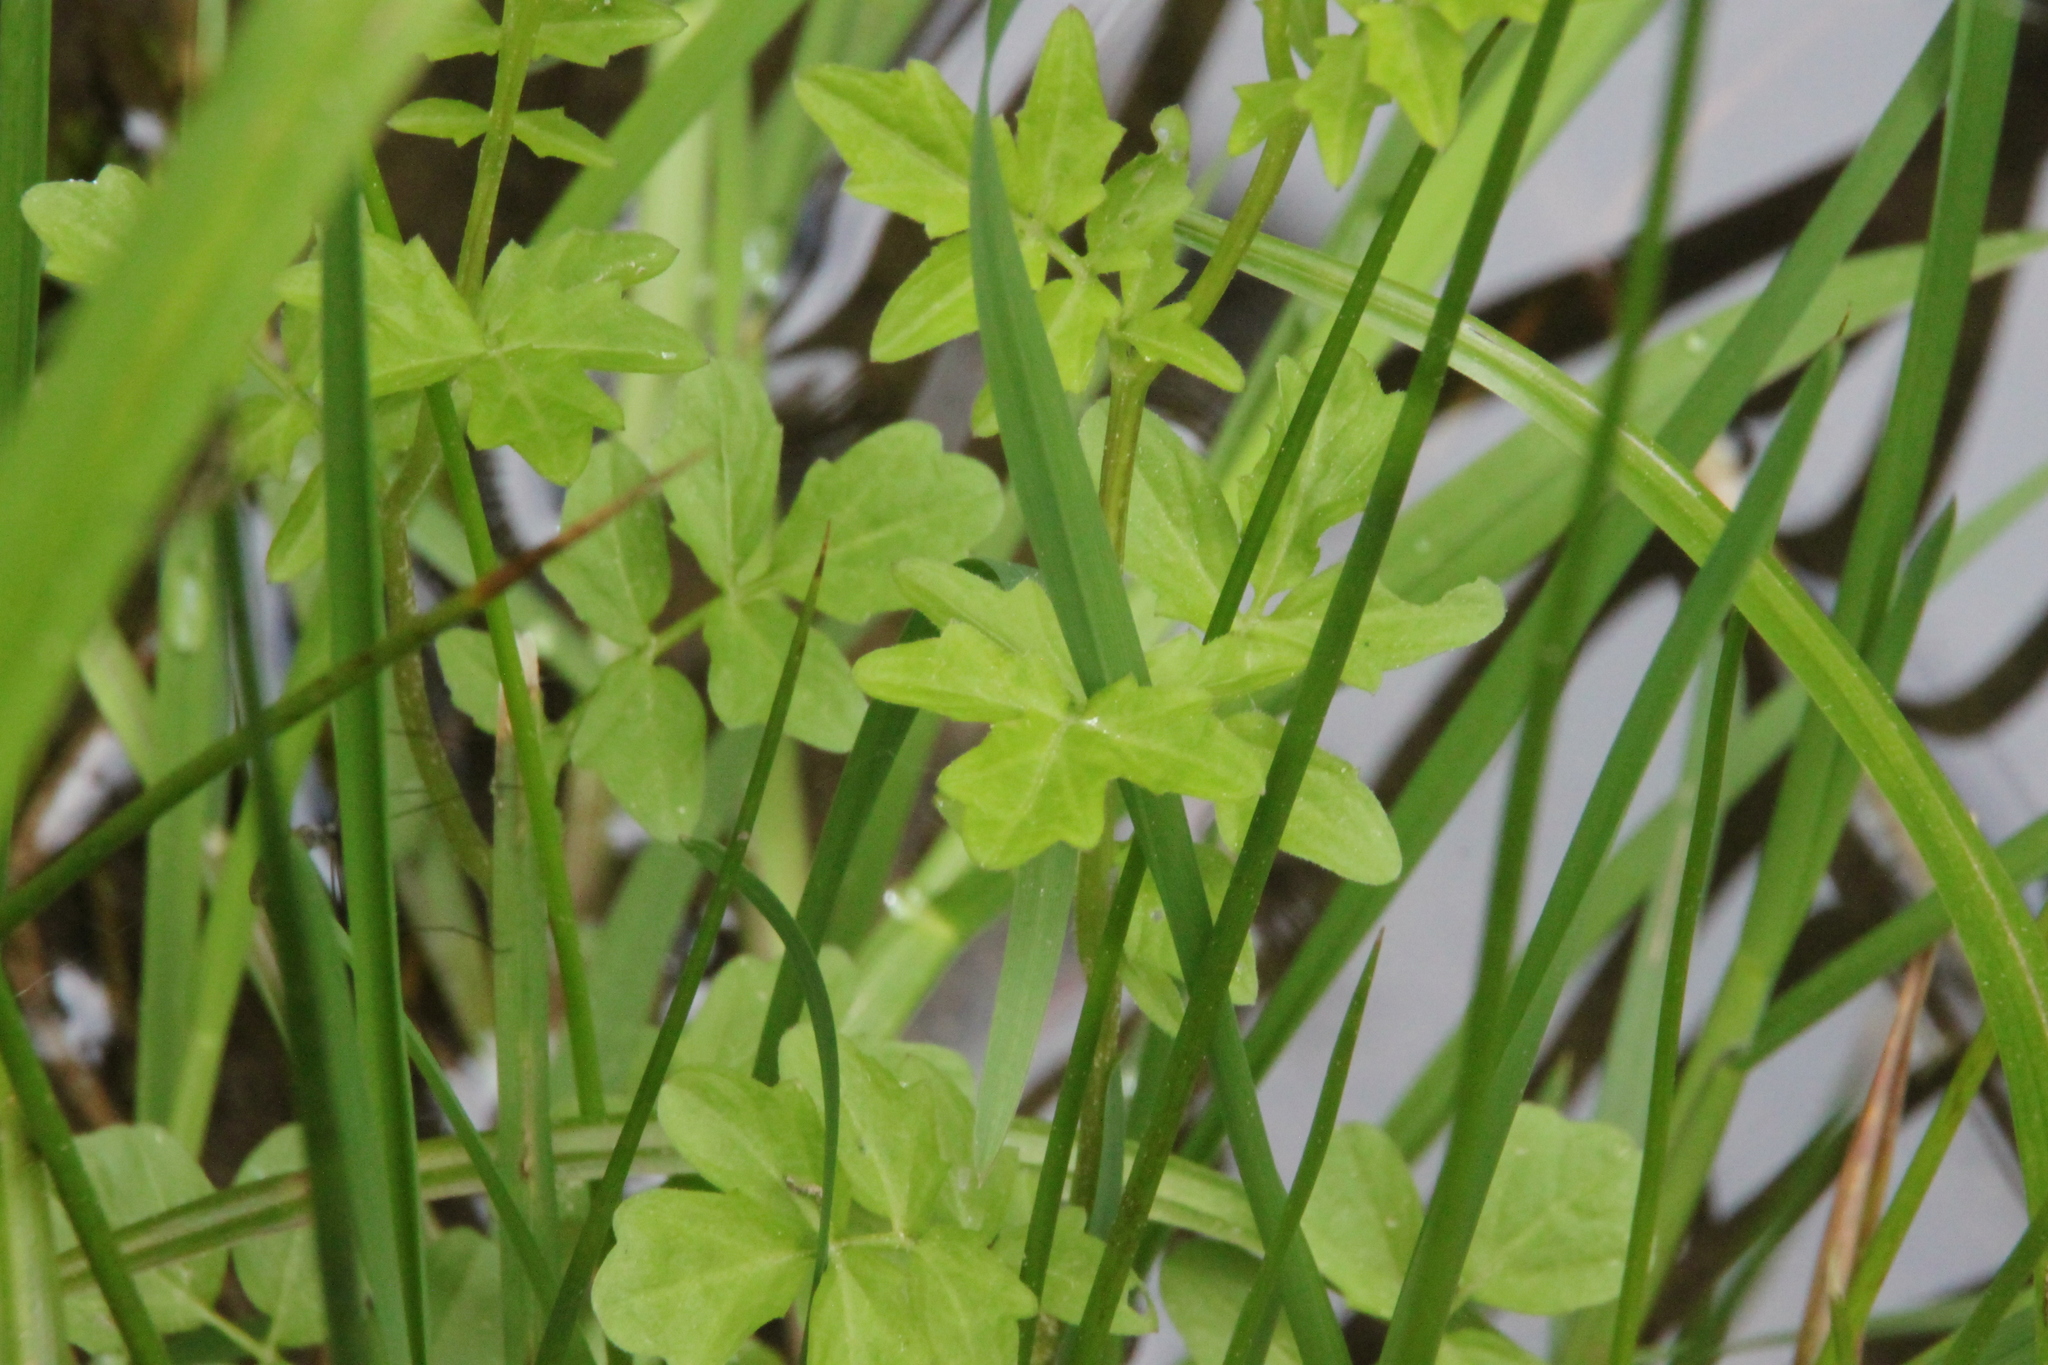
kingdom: Plantae
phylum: Tracheophyta
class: Magnoliopsida
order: Brassicales
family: Brassicaceae
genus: Cardamine
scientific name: Cardamine amara
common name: Large bitter-cress
